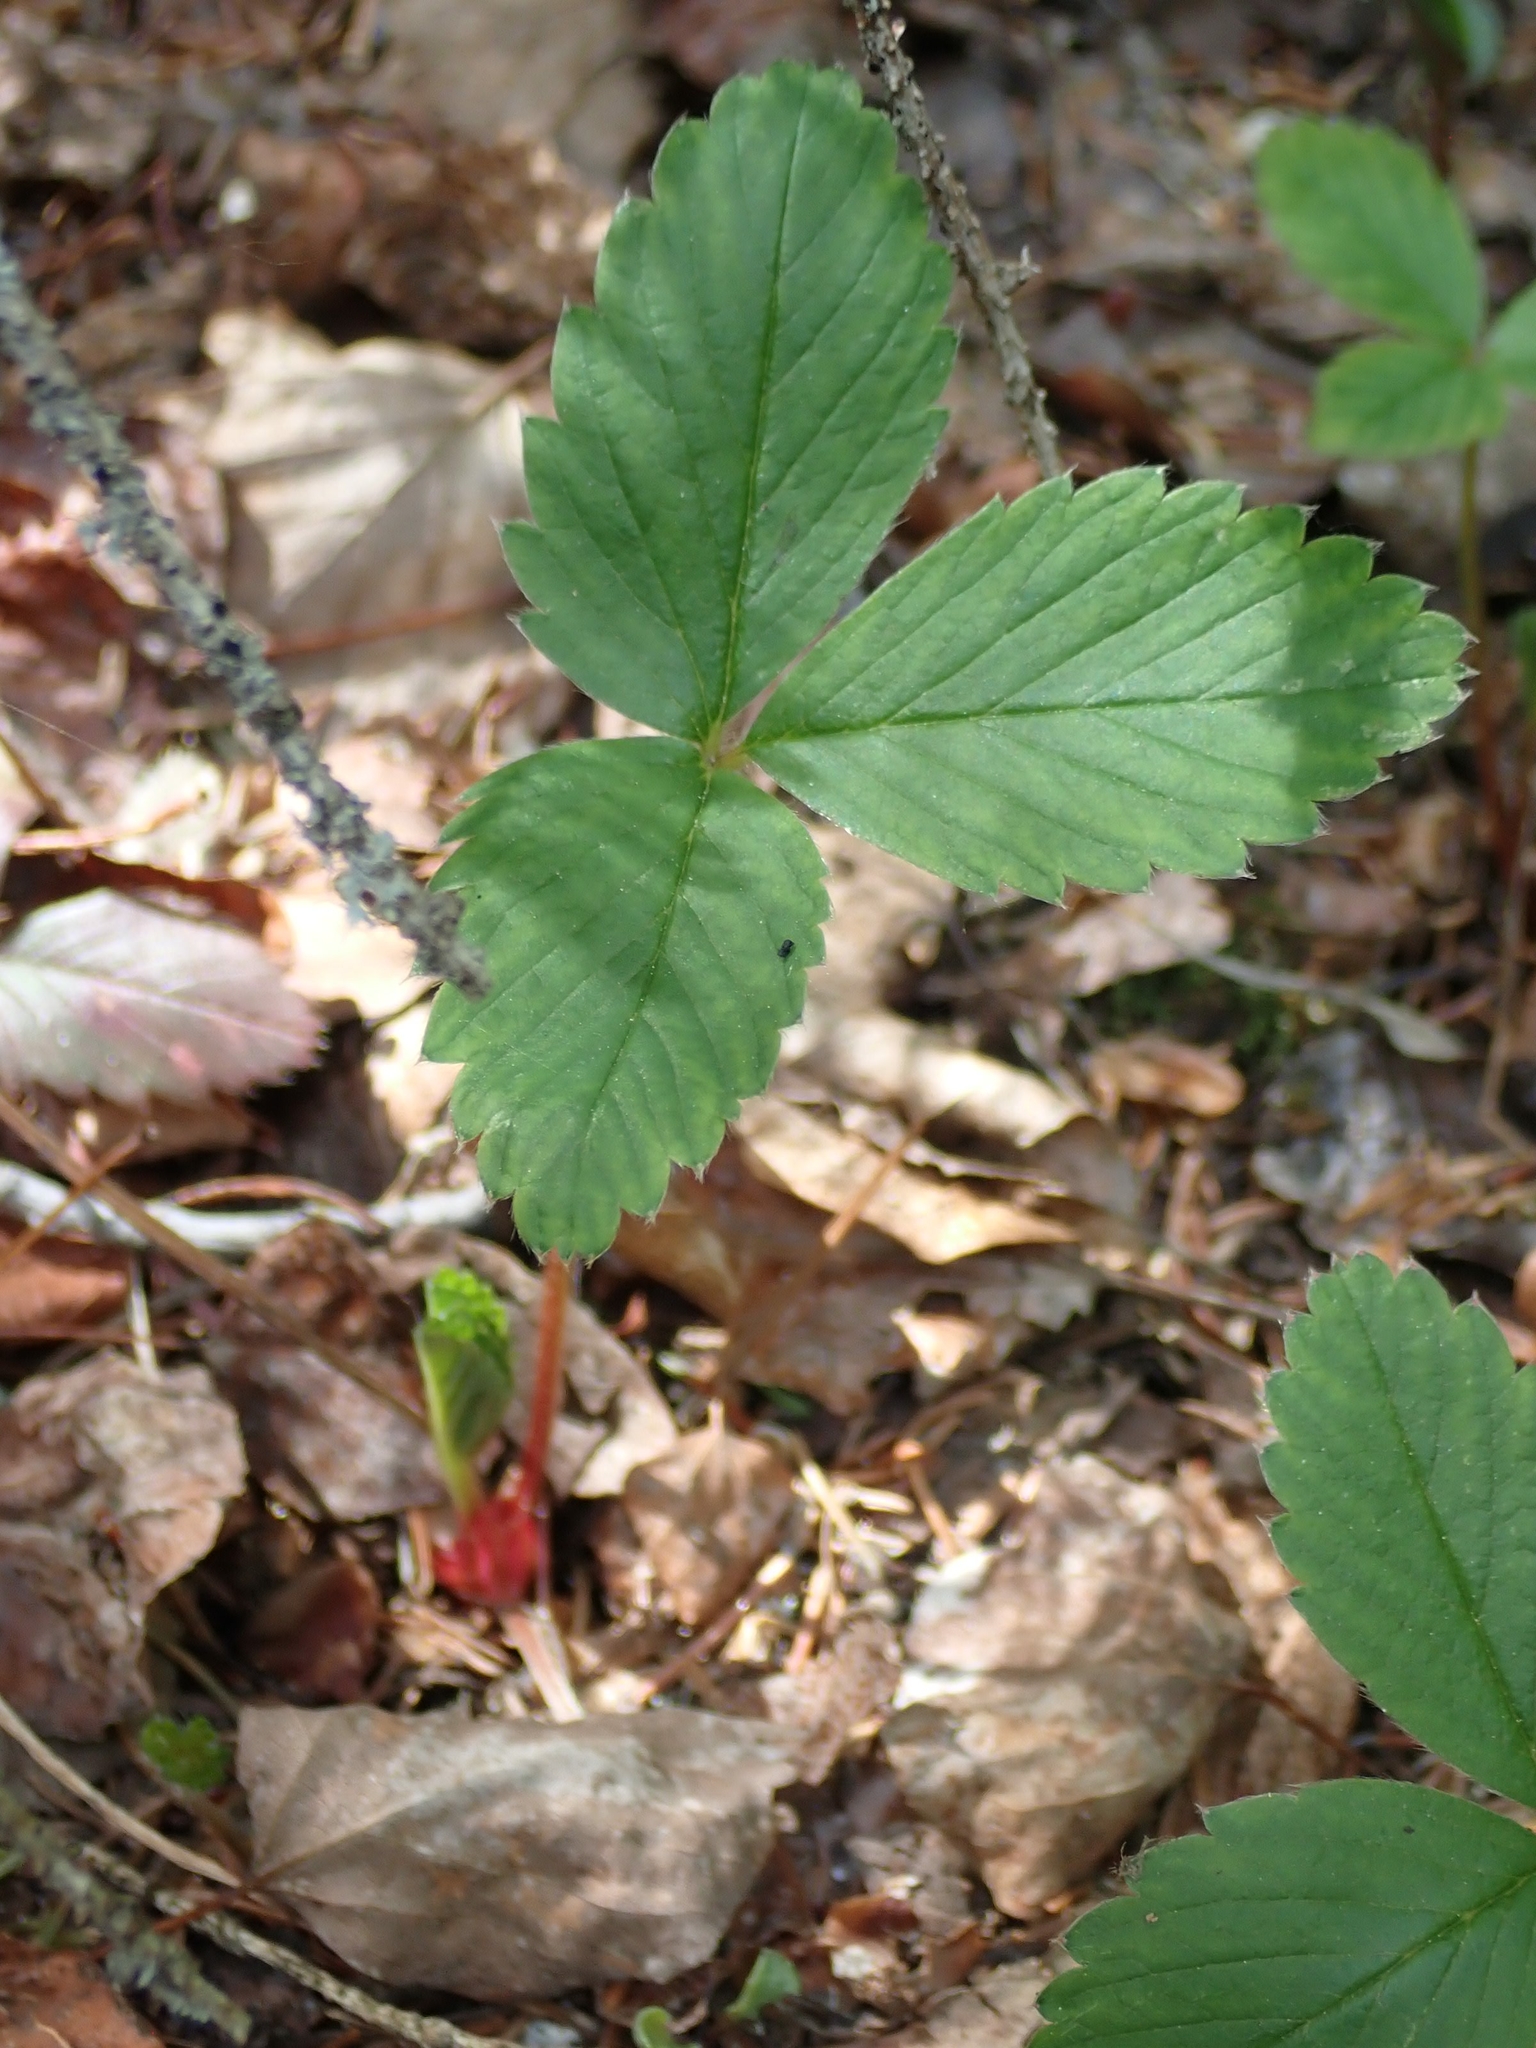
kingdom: Plantae
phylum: Tracheophyta
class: Magnoliopsida
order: Rosales
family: Rosaceae
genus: Fragaria
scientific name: Fragaria virginiana
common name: Thickleaved wild strawberry
